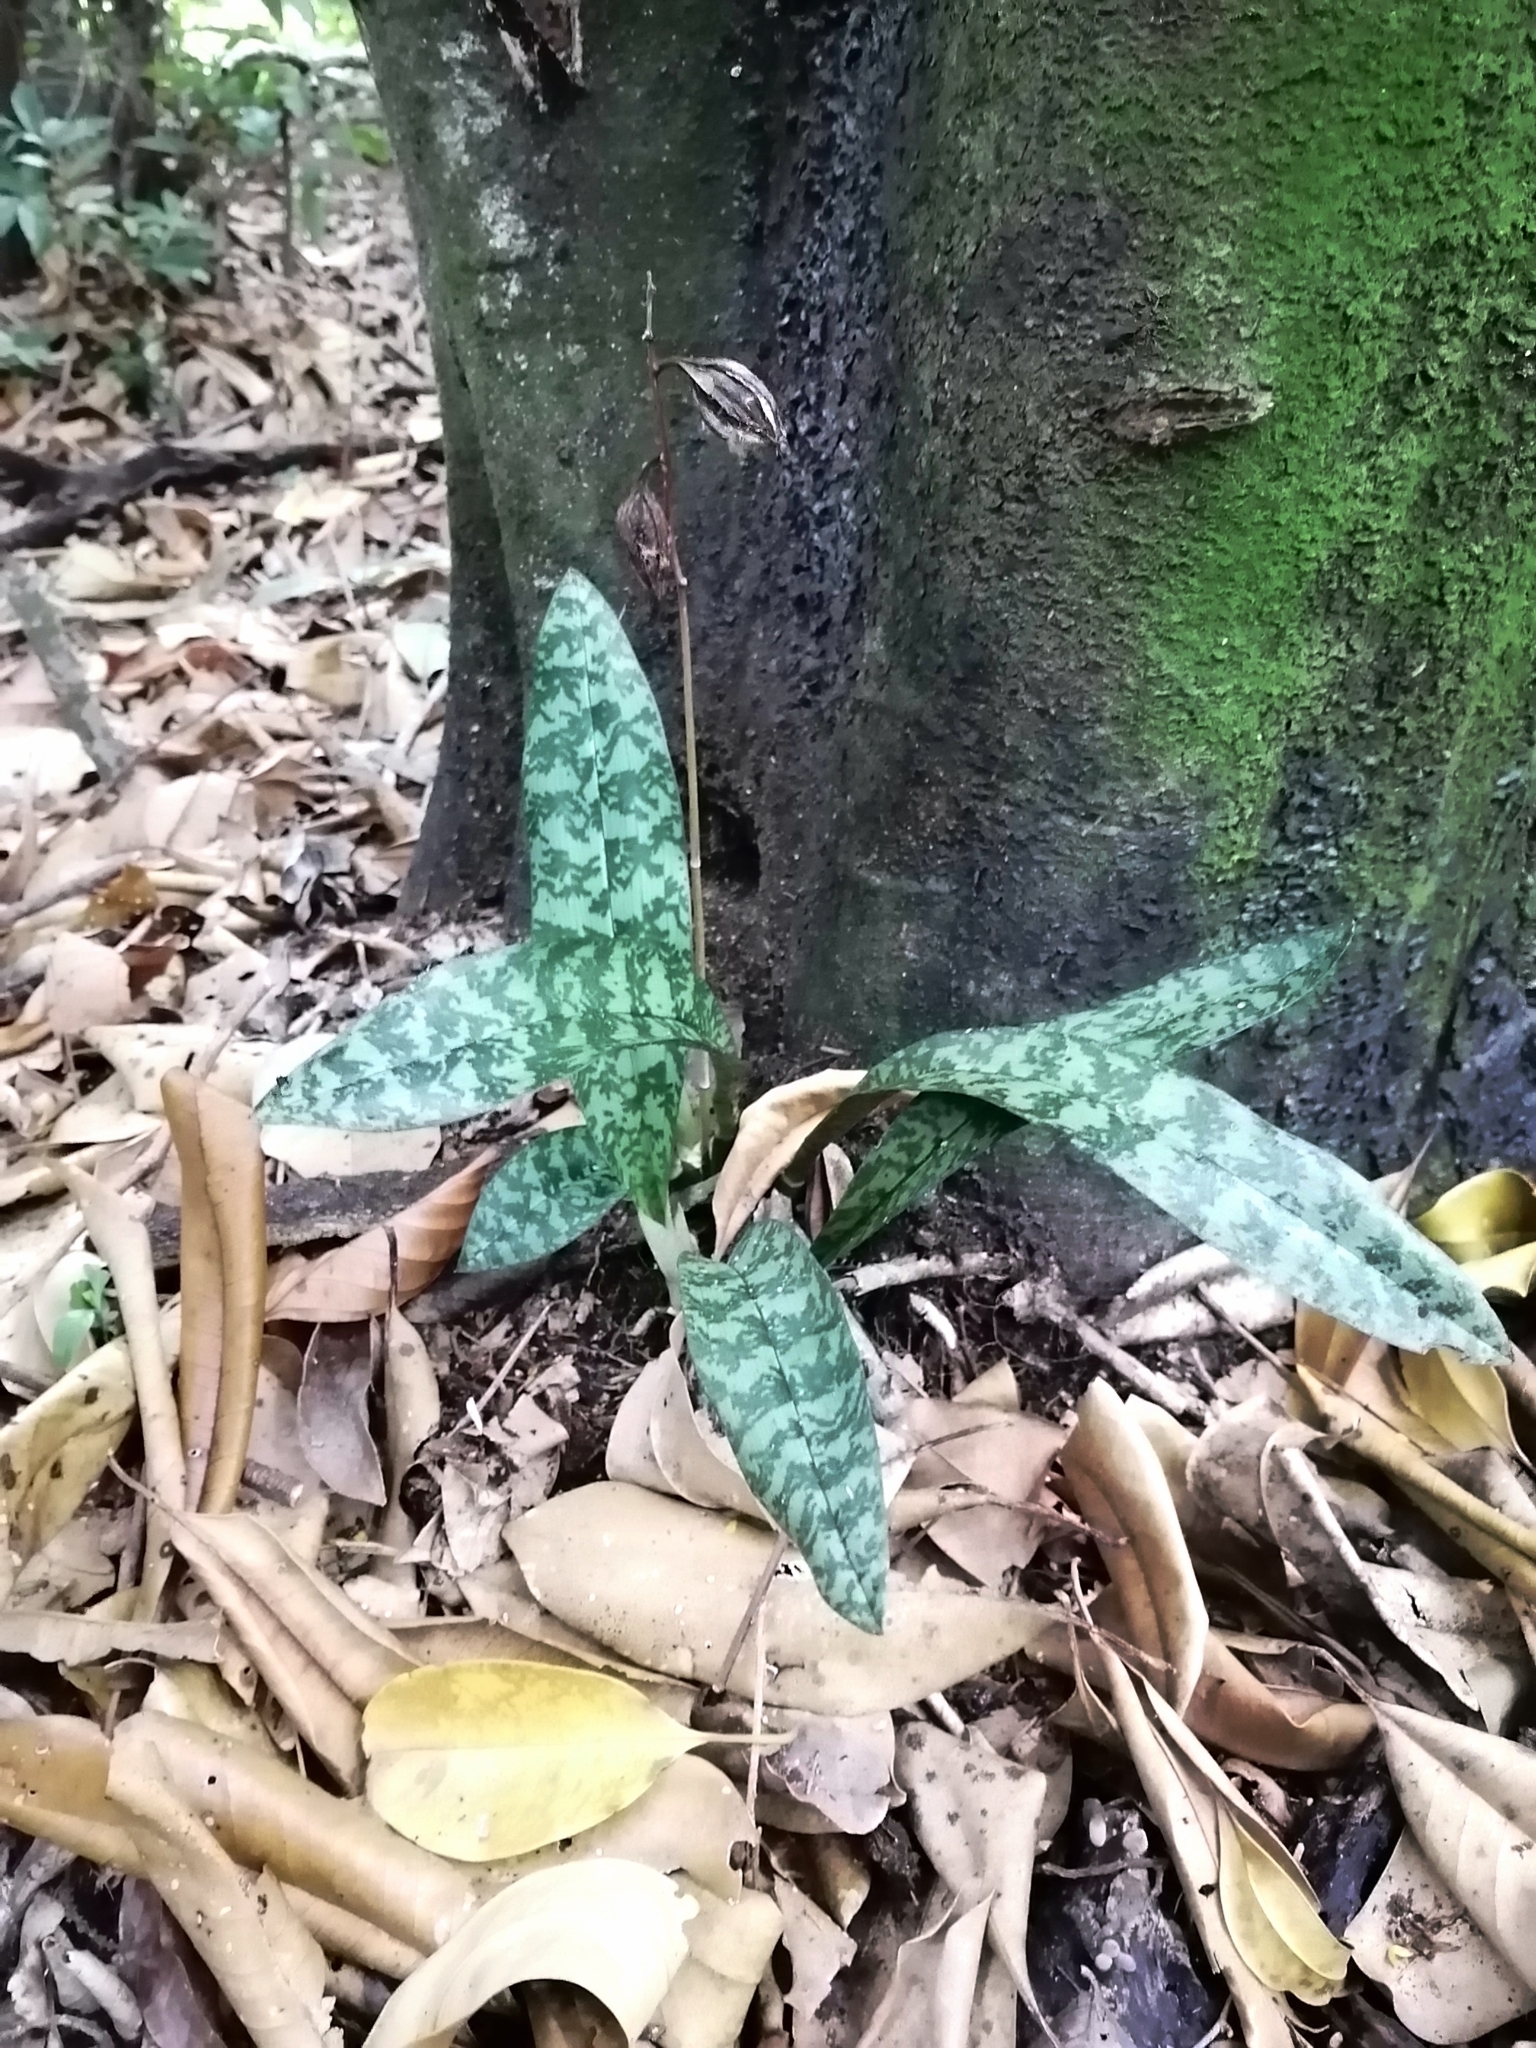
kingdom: Plantae
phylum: Tracheophyta
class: Liliopsida
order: Asparagales
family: Orchidaceae
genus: Eulophia
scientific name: Eulophia maculata
